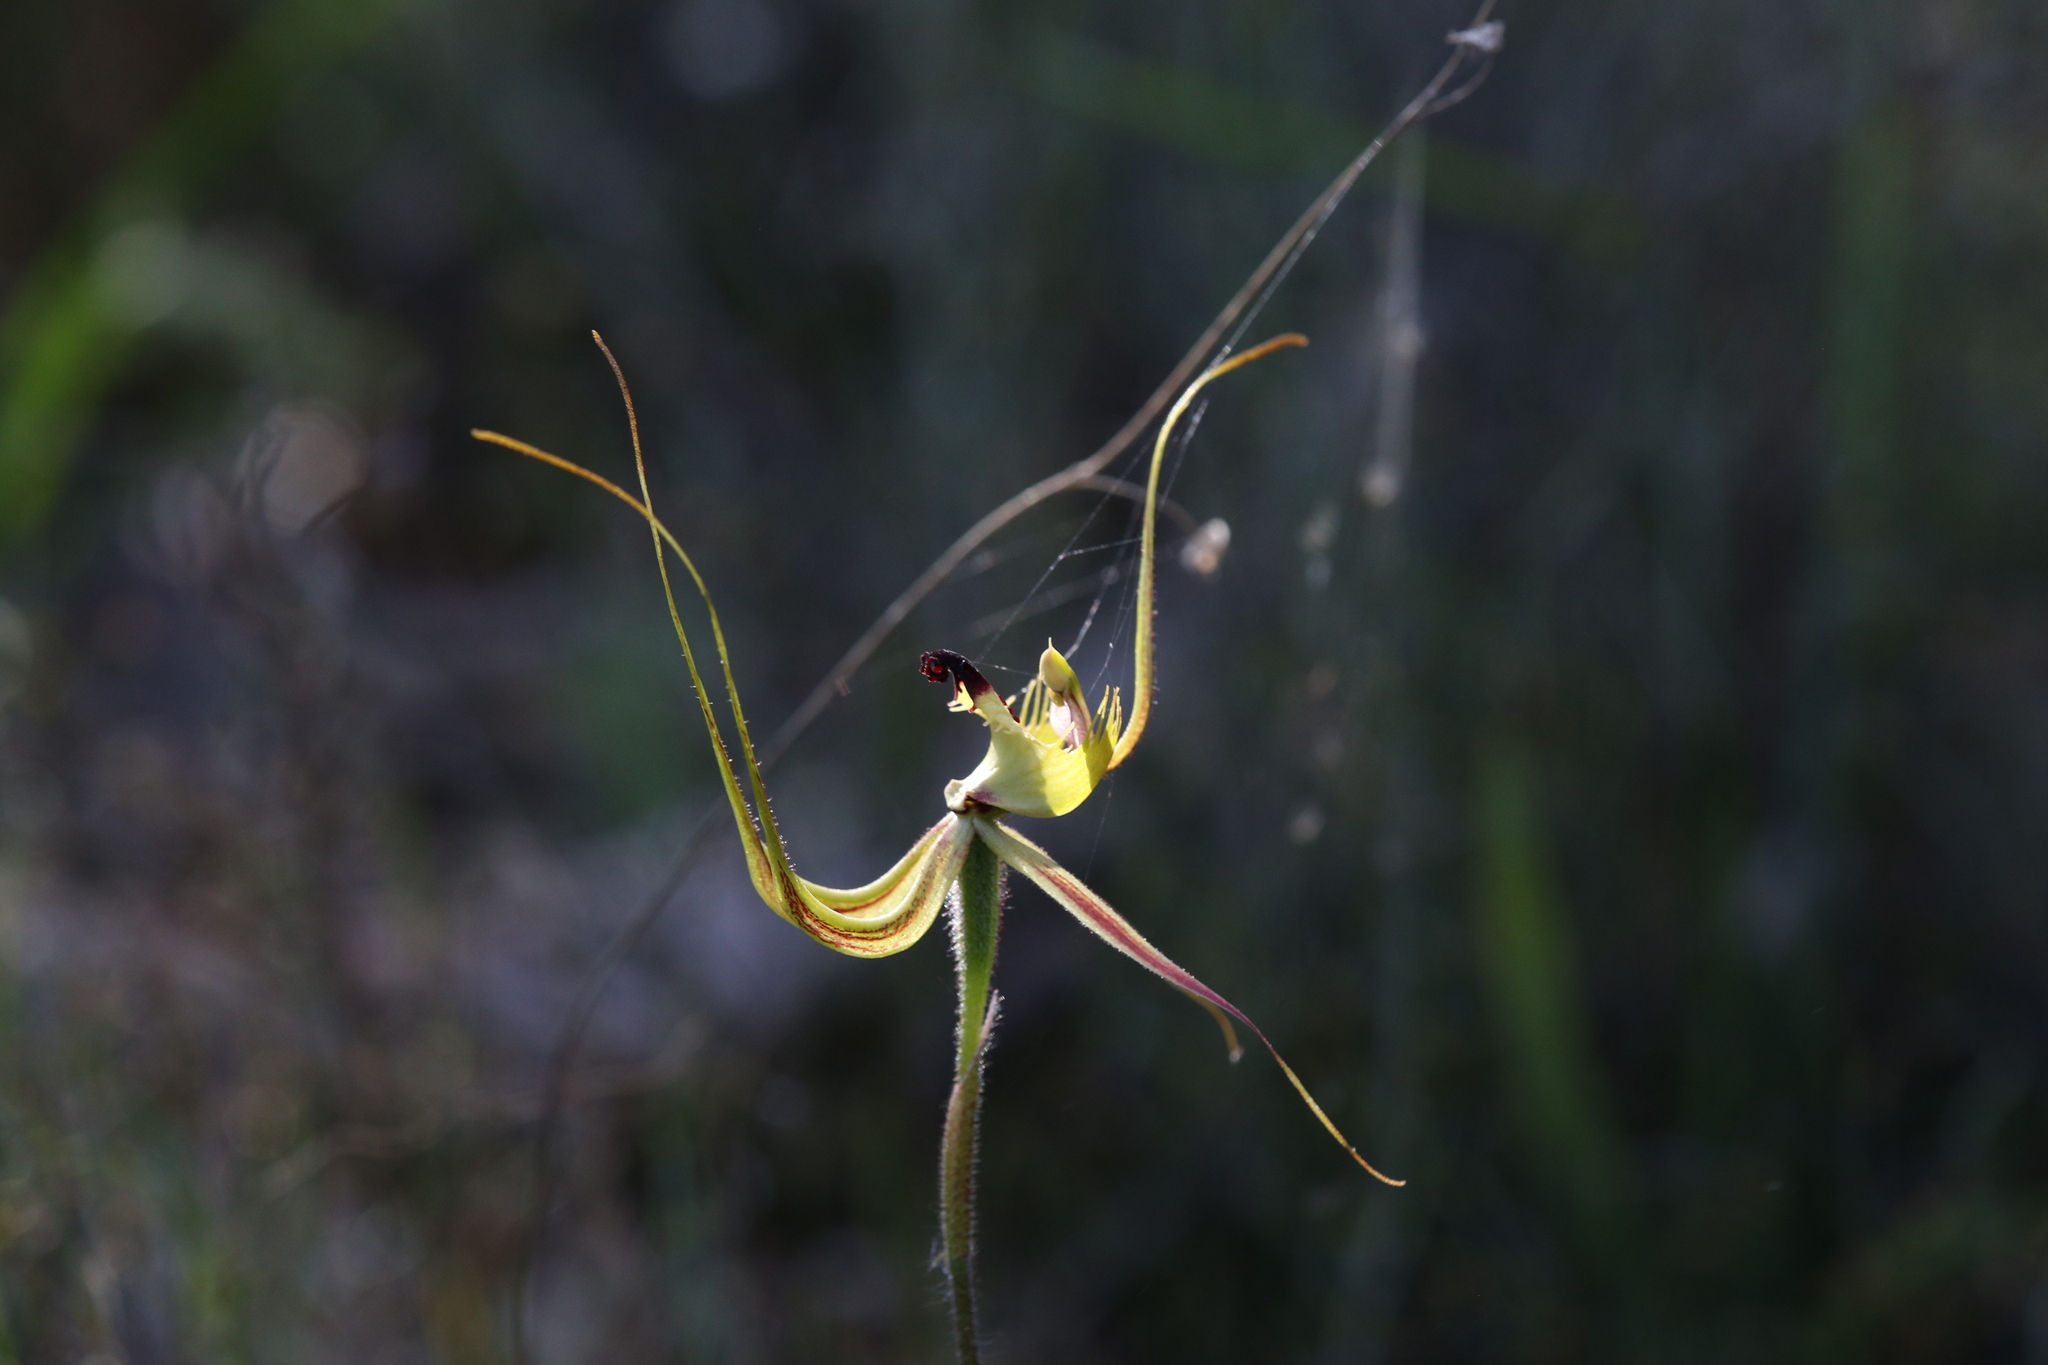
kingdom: Plantae
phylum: Tracheophyta
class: Liliopsida
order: Asparagales
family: Orchidaceae
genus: Caladenia
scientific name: Caladenia falcata
